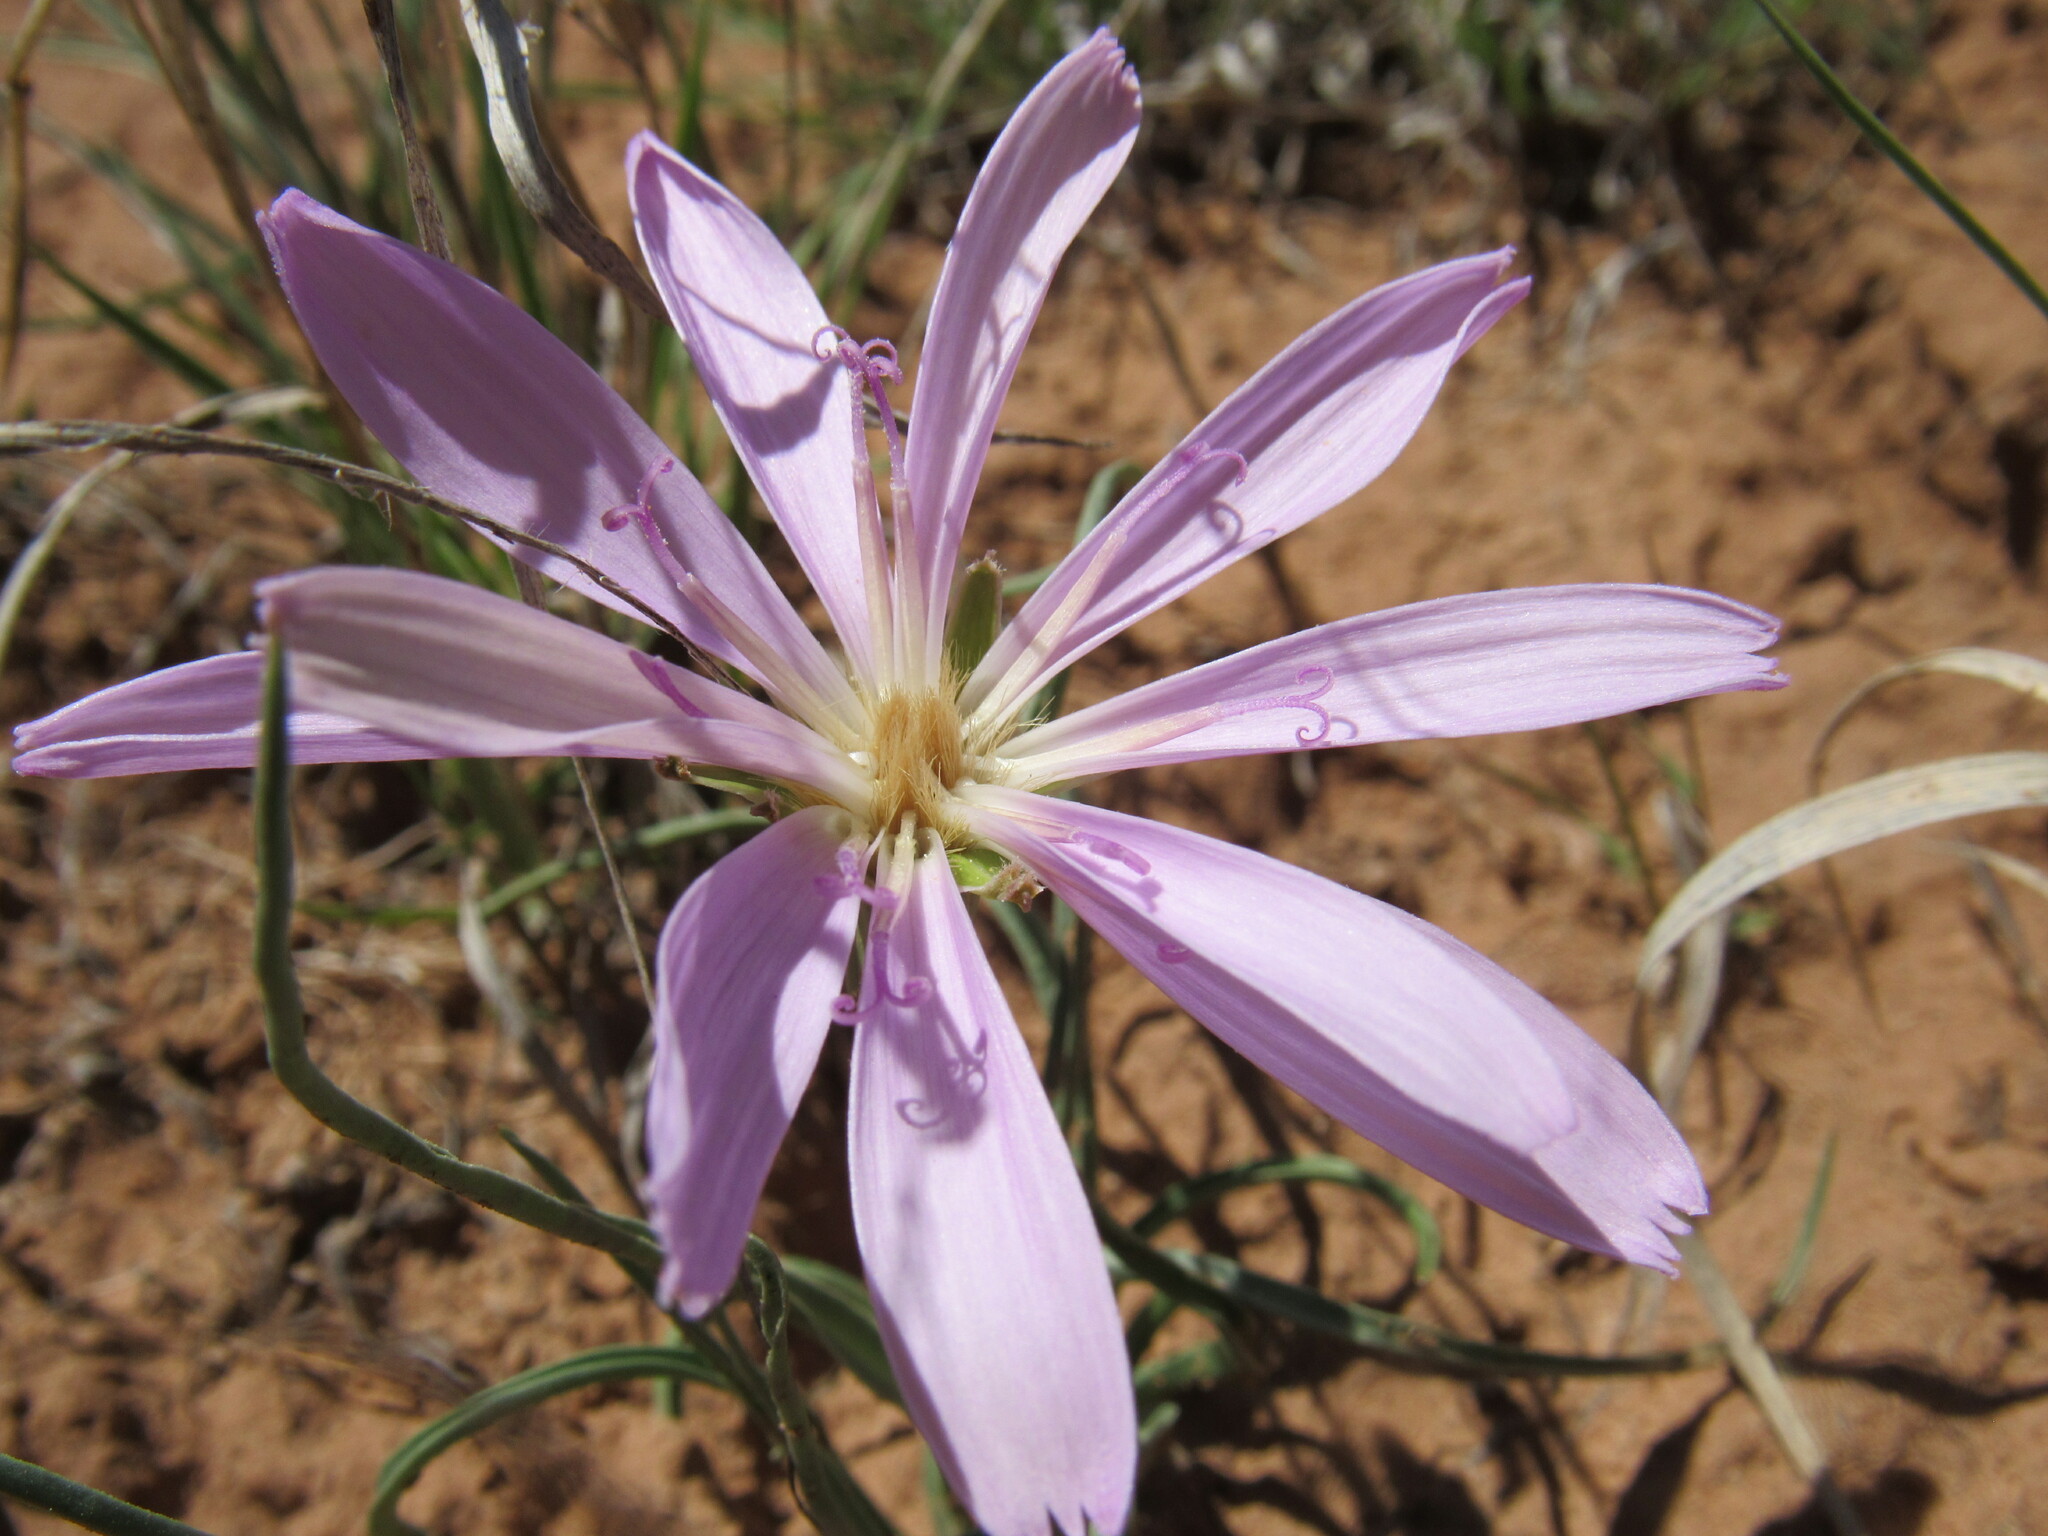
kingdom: Plantae
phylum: Tracheophyta
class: Magnoliopsida
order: Asterales
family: Asteraceae
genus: Lygodesmia
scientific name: Lygodesmia grandiflora
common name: Showy rush-pink
